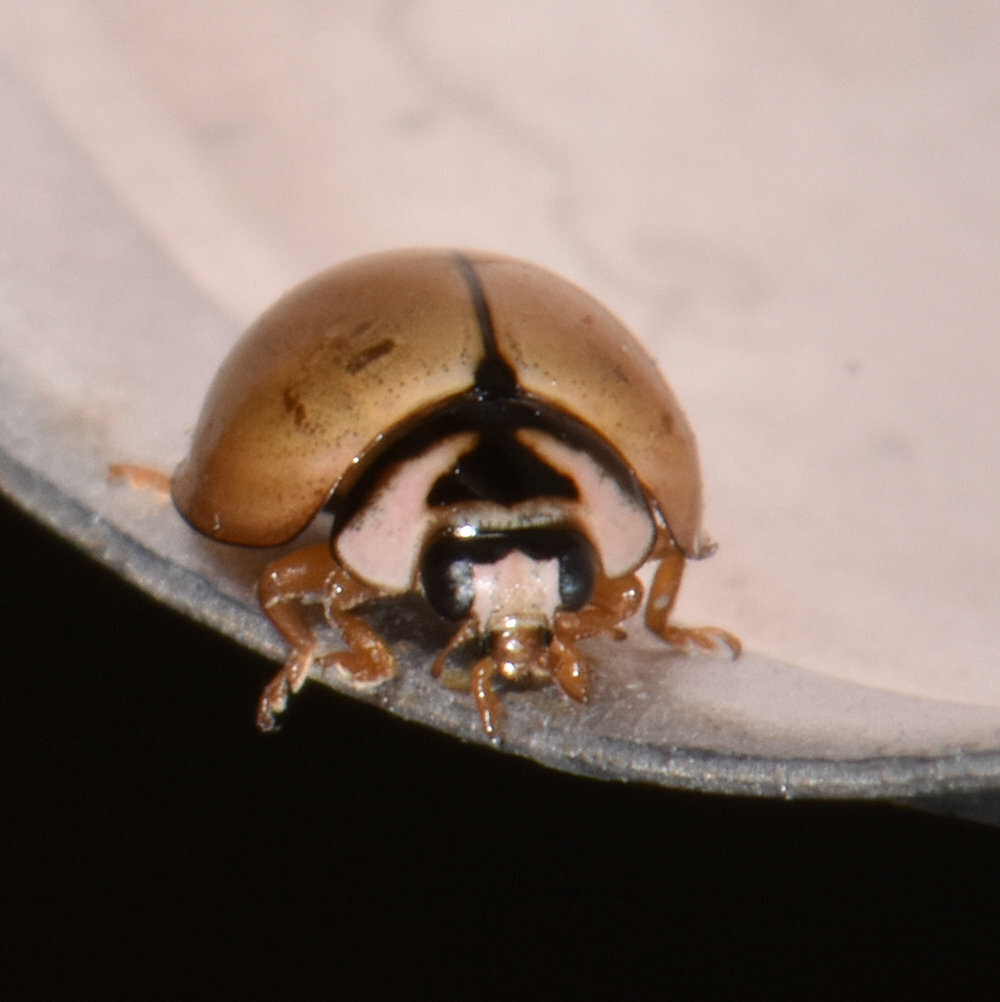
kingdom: Animalia
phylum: Arthropoda
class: Insecta
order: Coleoptera
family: Coccinellidae
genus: Cheilomenes
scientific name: Cheilomenes propinqua
